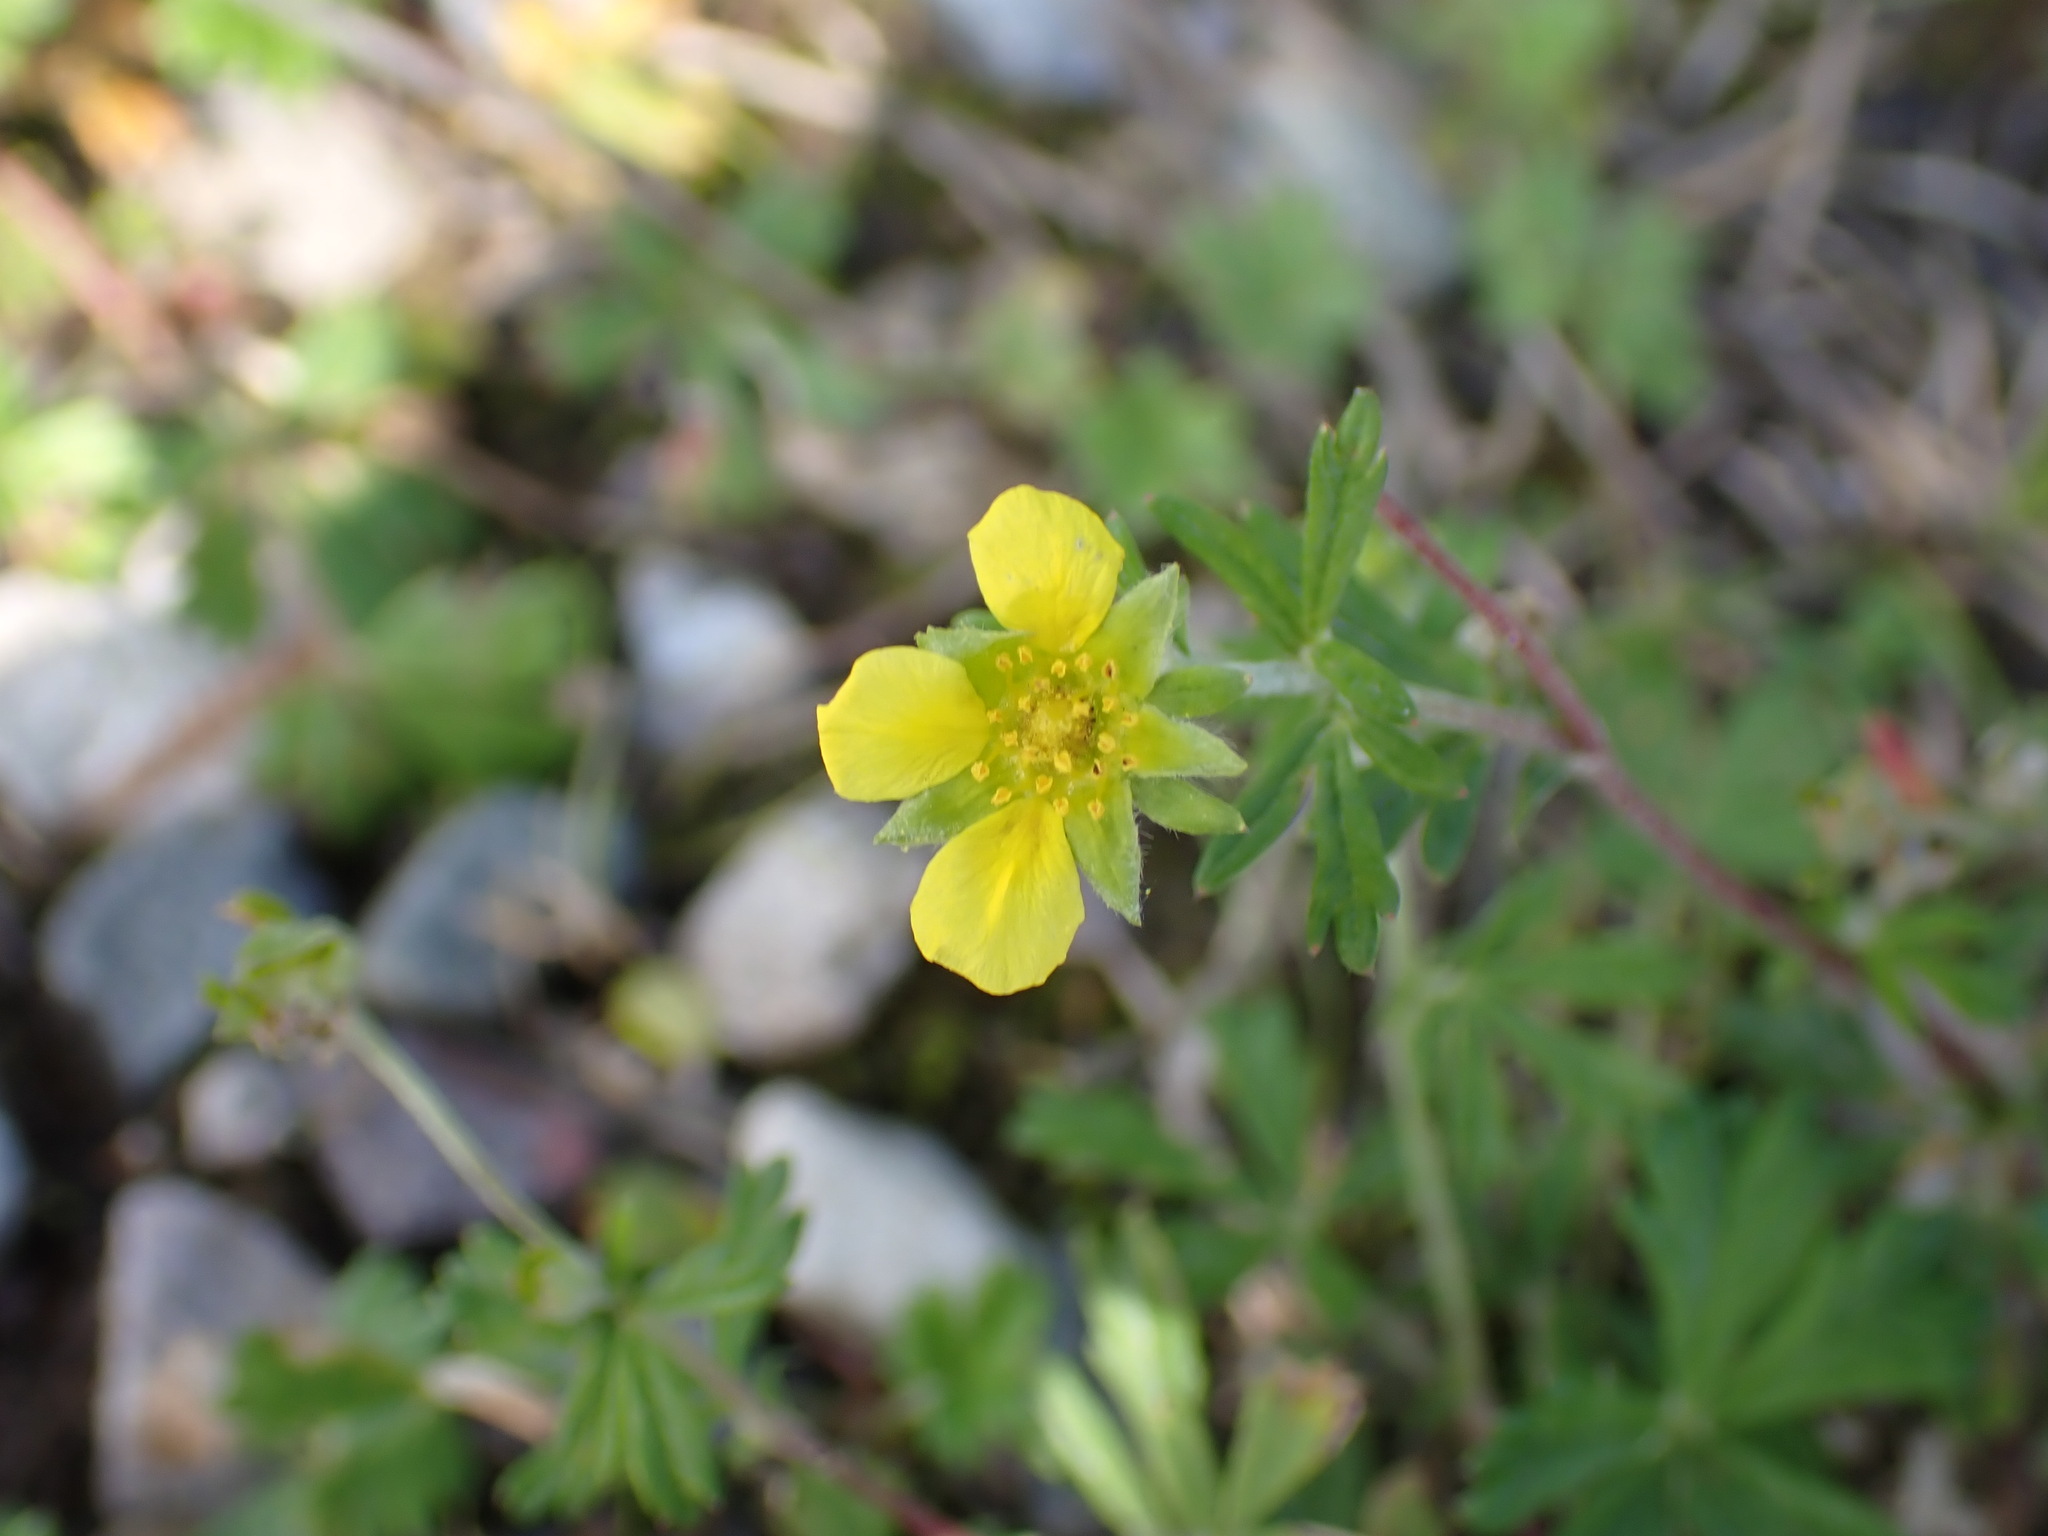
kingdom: Plantae
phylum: Tracheophyta
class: Magnoliopsida
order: Rosales
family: Rosaceae
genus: Potentilla
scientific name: Potentilla argentea
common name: Hoary cinquefoil
